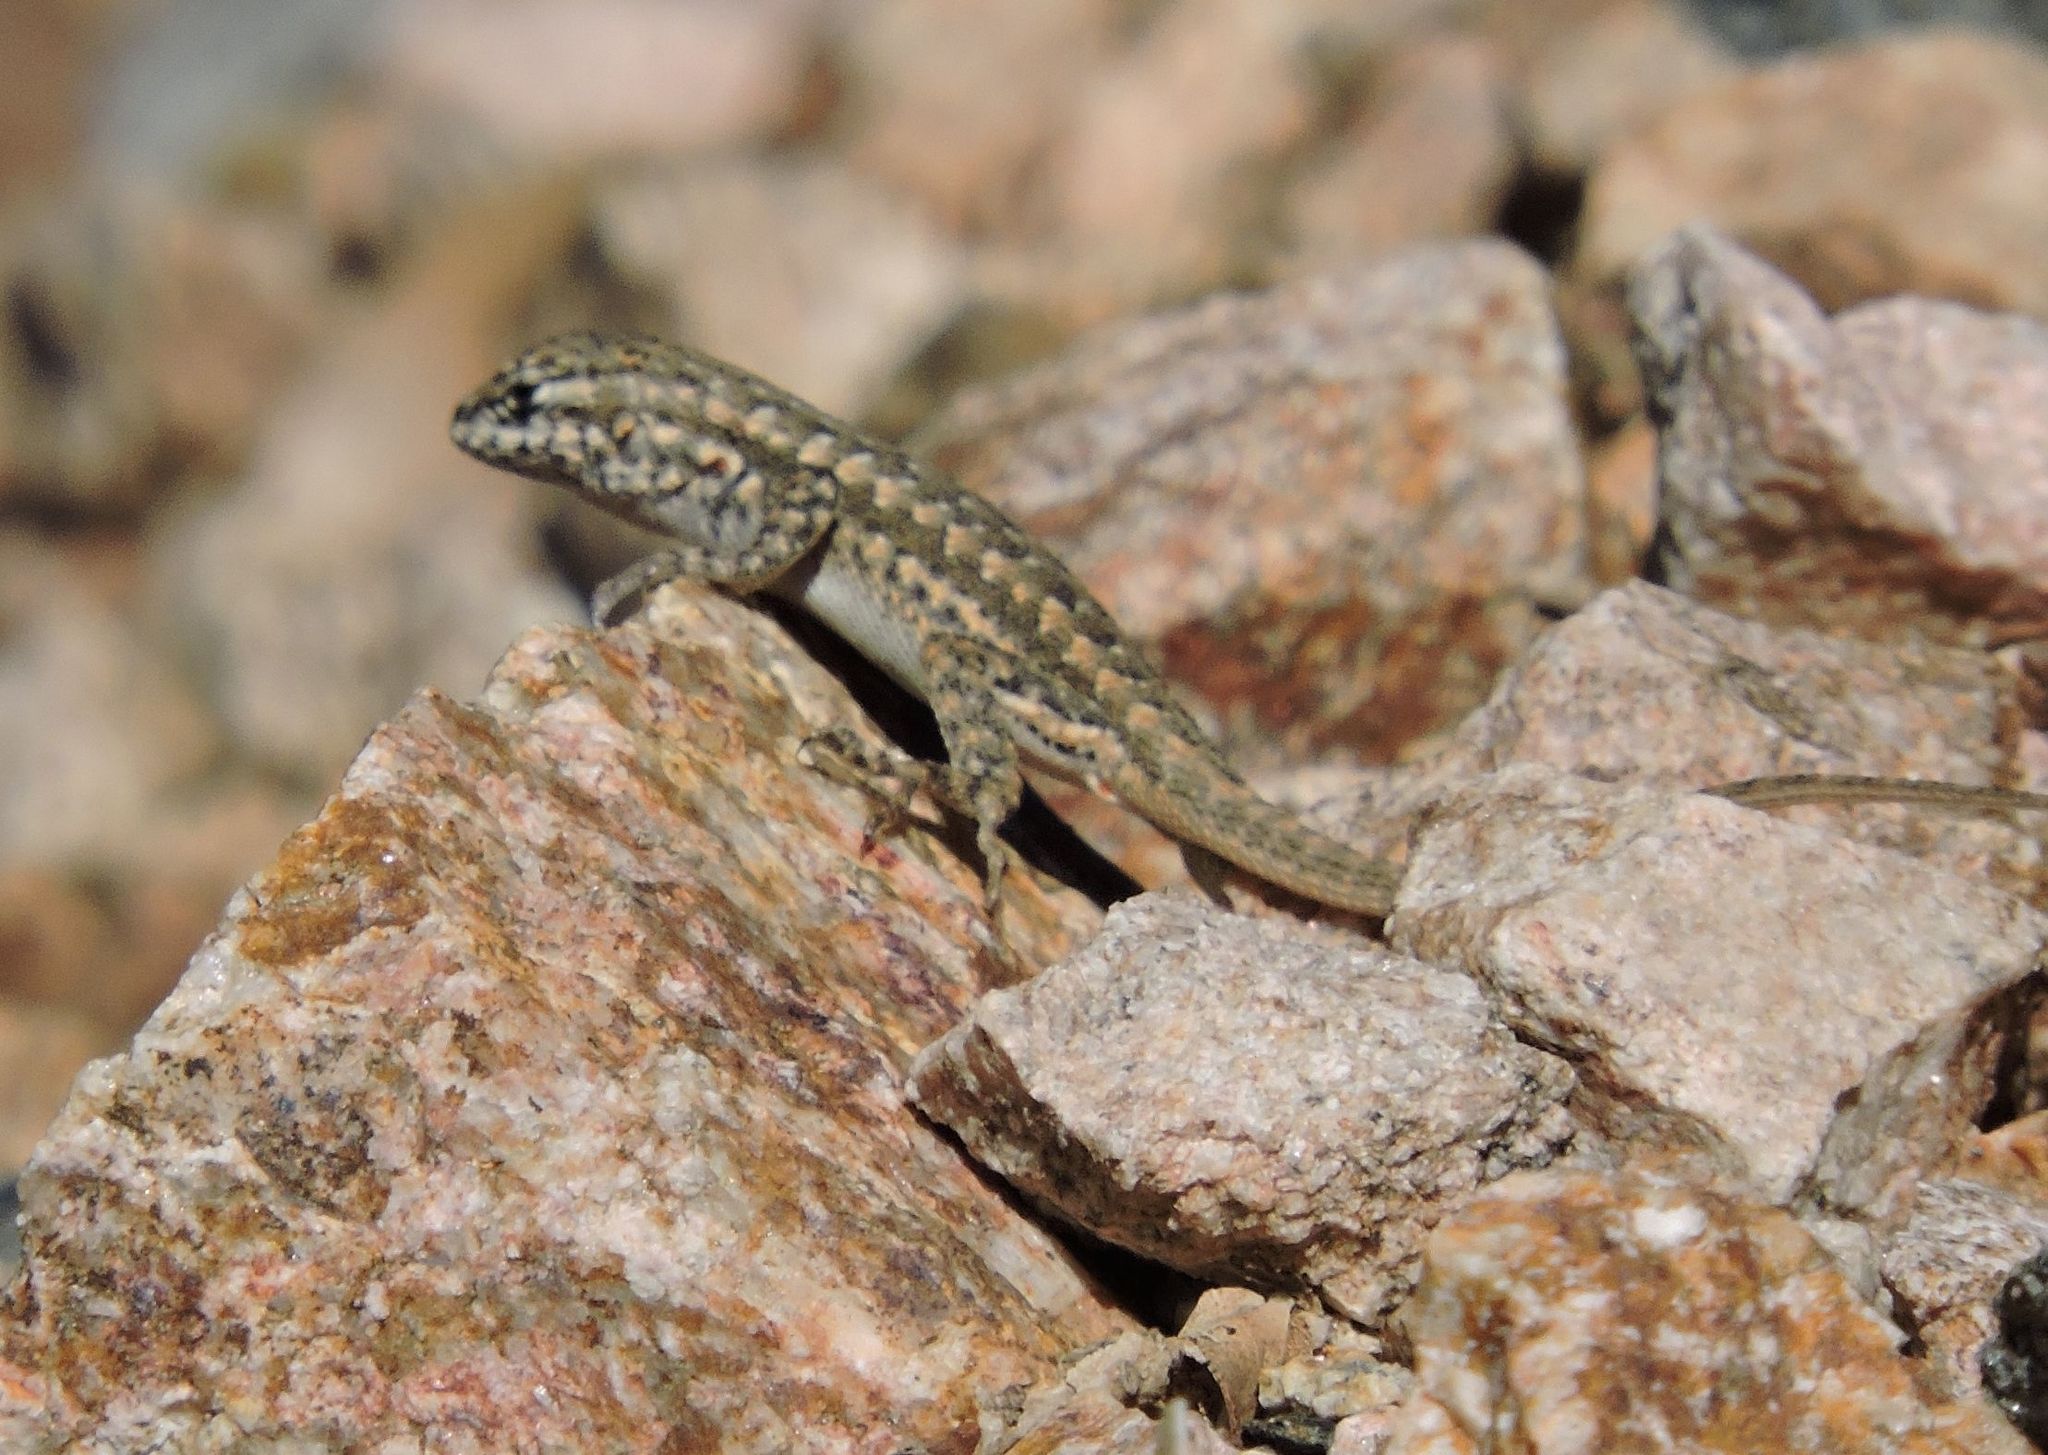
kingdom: Animalia
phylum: Chordata
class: Squamata
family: Phrynosomatidae
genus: Sceloporus
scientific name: Sceloporus graciosus
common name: Sagebrush lizard
